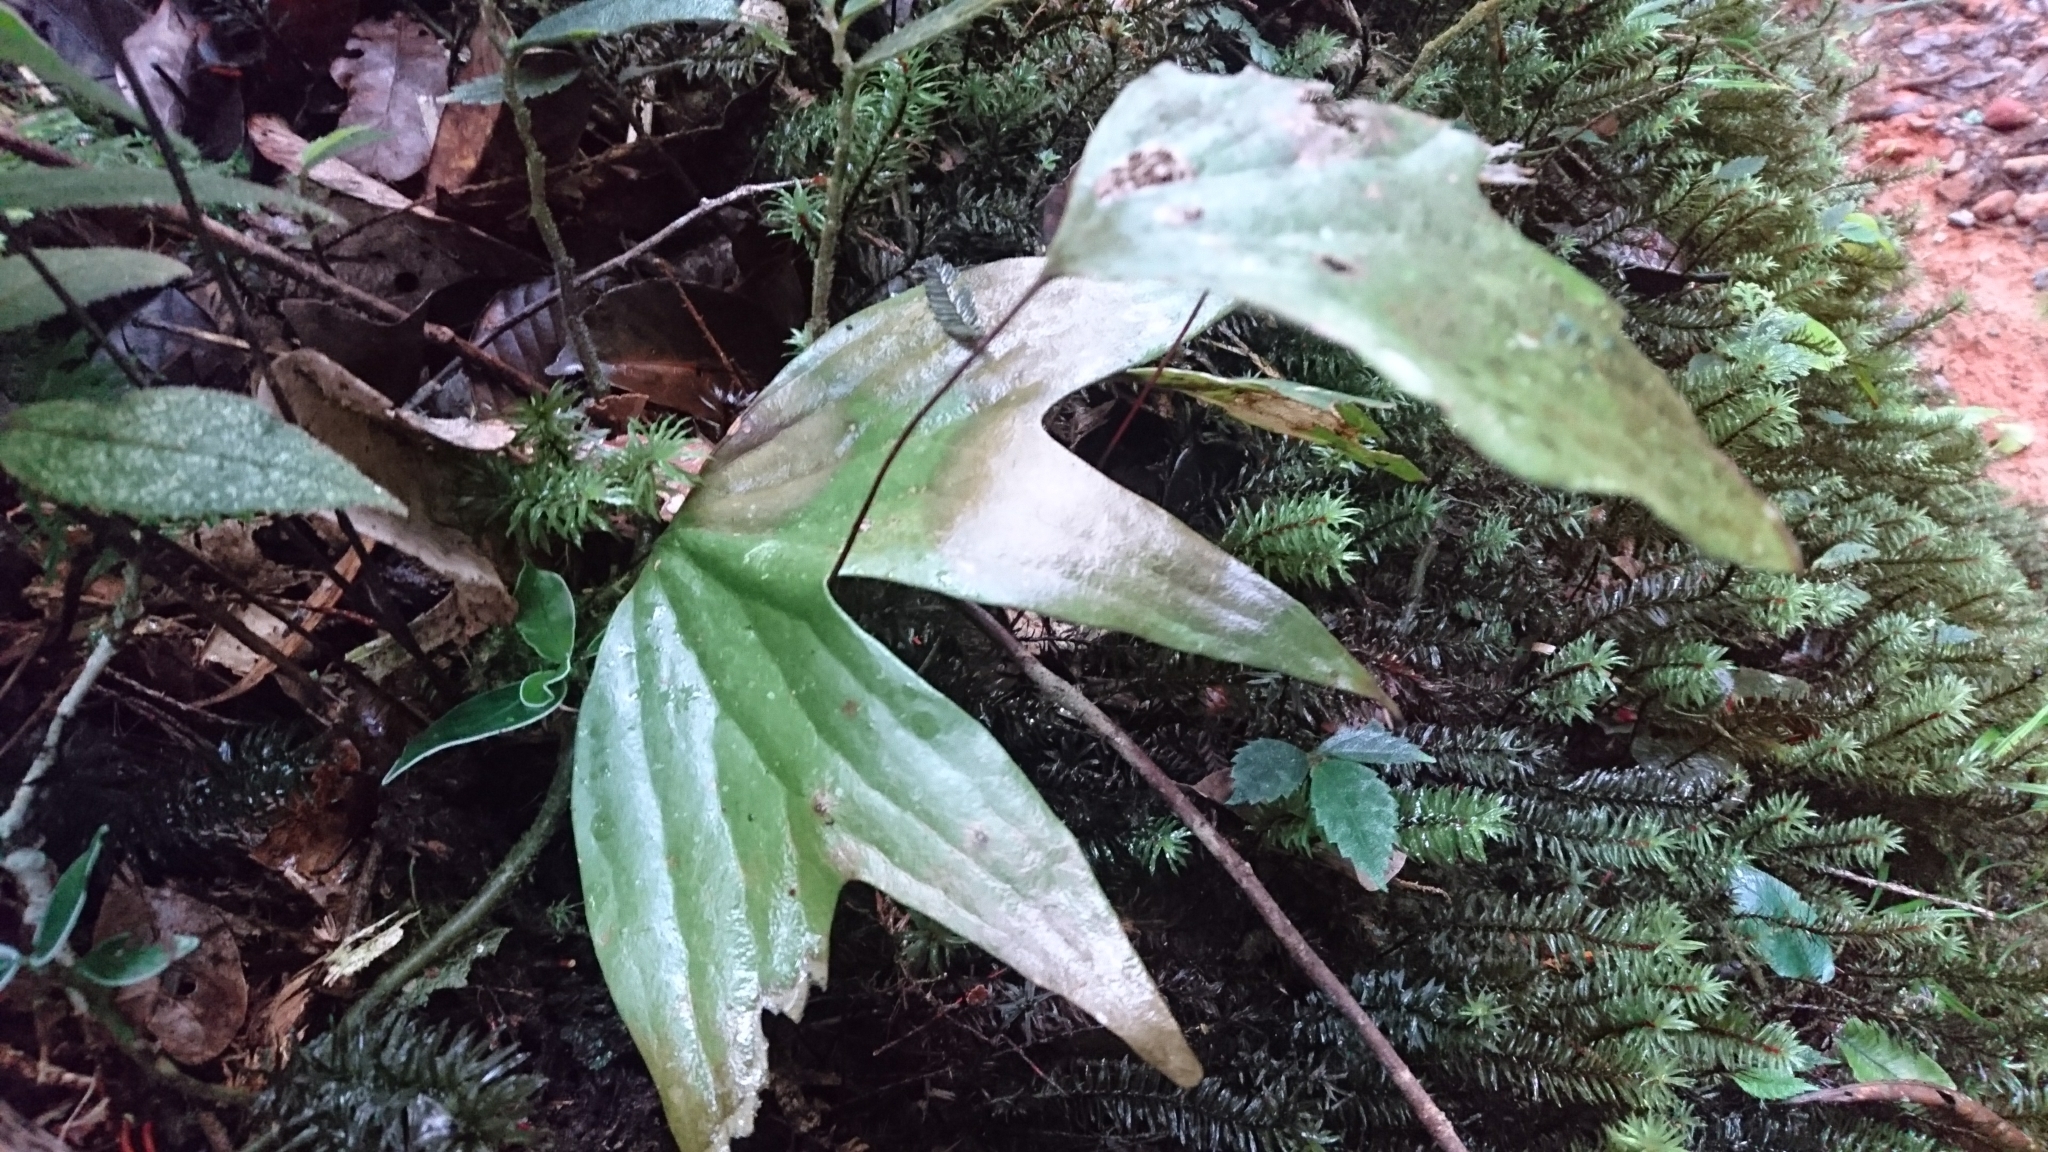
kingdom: Plantae
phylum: Tracheophyta
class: Polypodiopsida
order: Gleicheniales
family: Dipteridaceae
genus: Cheiropleuria
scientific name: Cheiropleuria bicuspis
